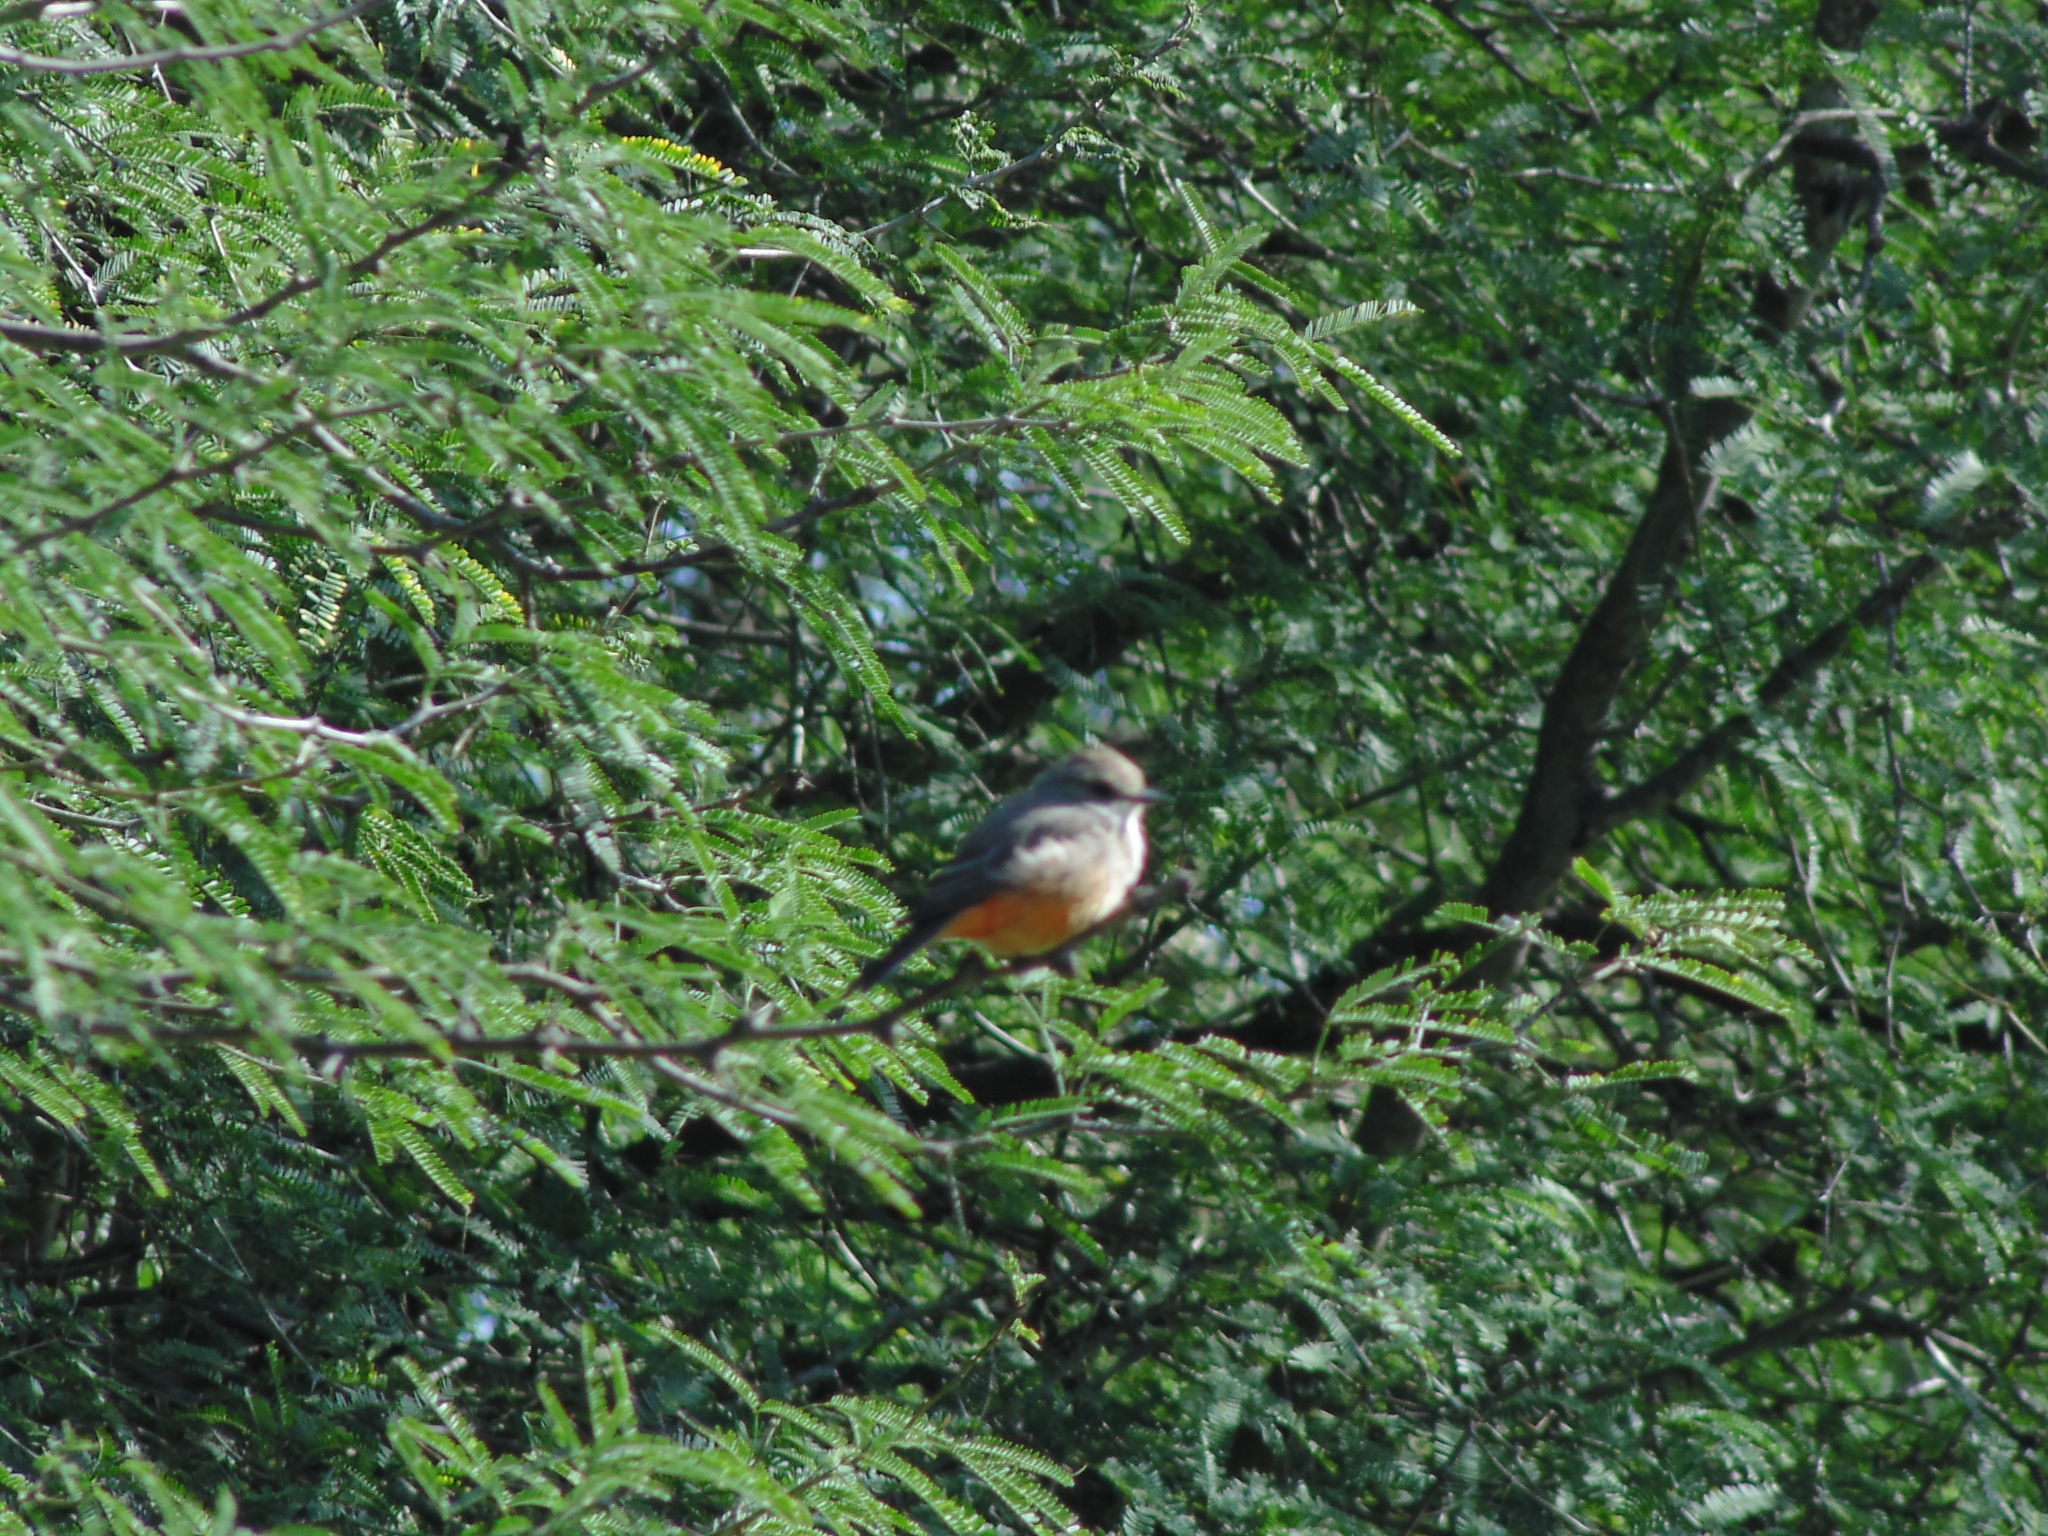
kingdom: Animalia
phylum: Chordata
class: Aves
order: Passeriformes
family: Tyrannidae
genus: Pyrocephalus
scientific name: Pyrocephalus rubinus
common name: Vermilion flycatcher
